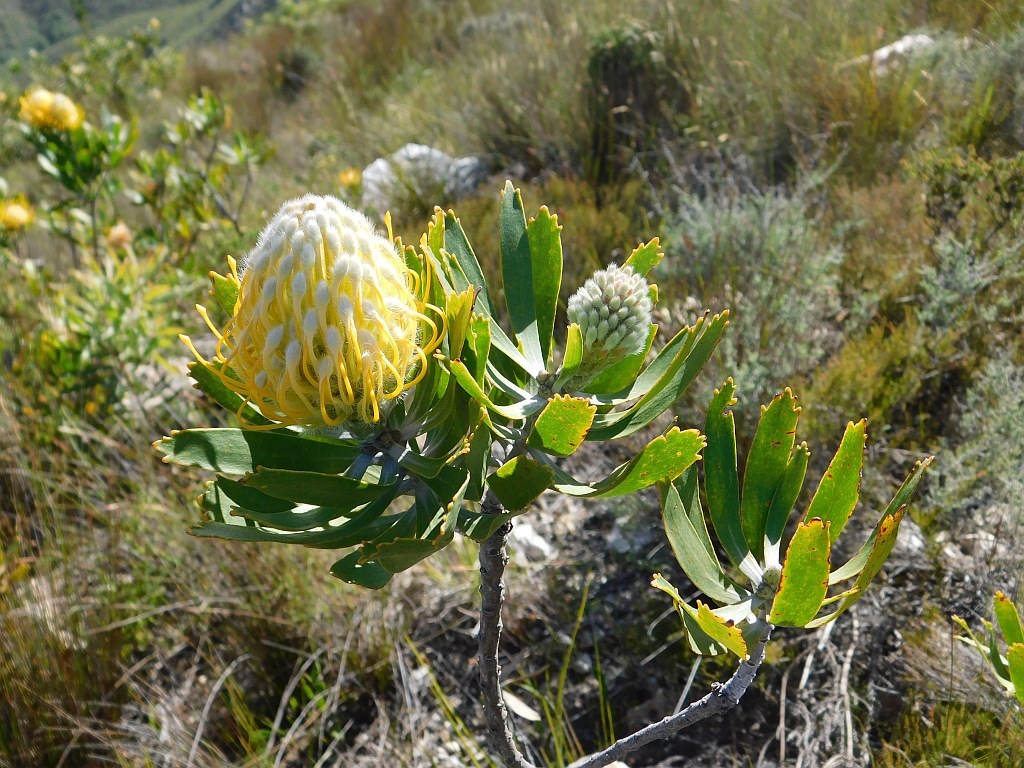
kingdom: Plantae
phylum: Tracheophyta
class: Magnoliopsida
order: Proteales
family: Proteaceae
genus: Leucospermum
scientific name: Leucospermum cuneiforme
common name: Common pincushion
